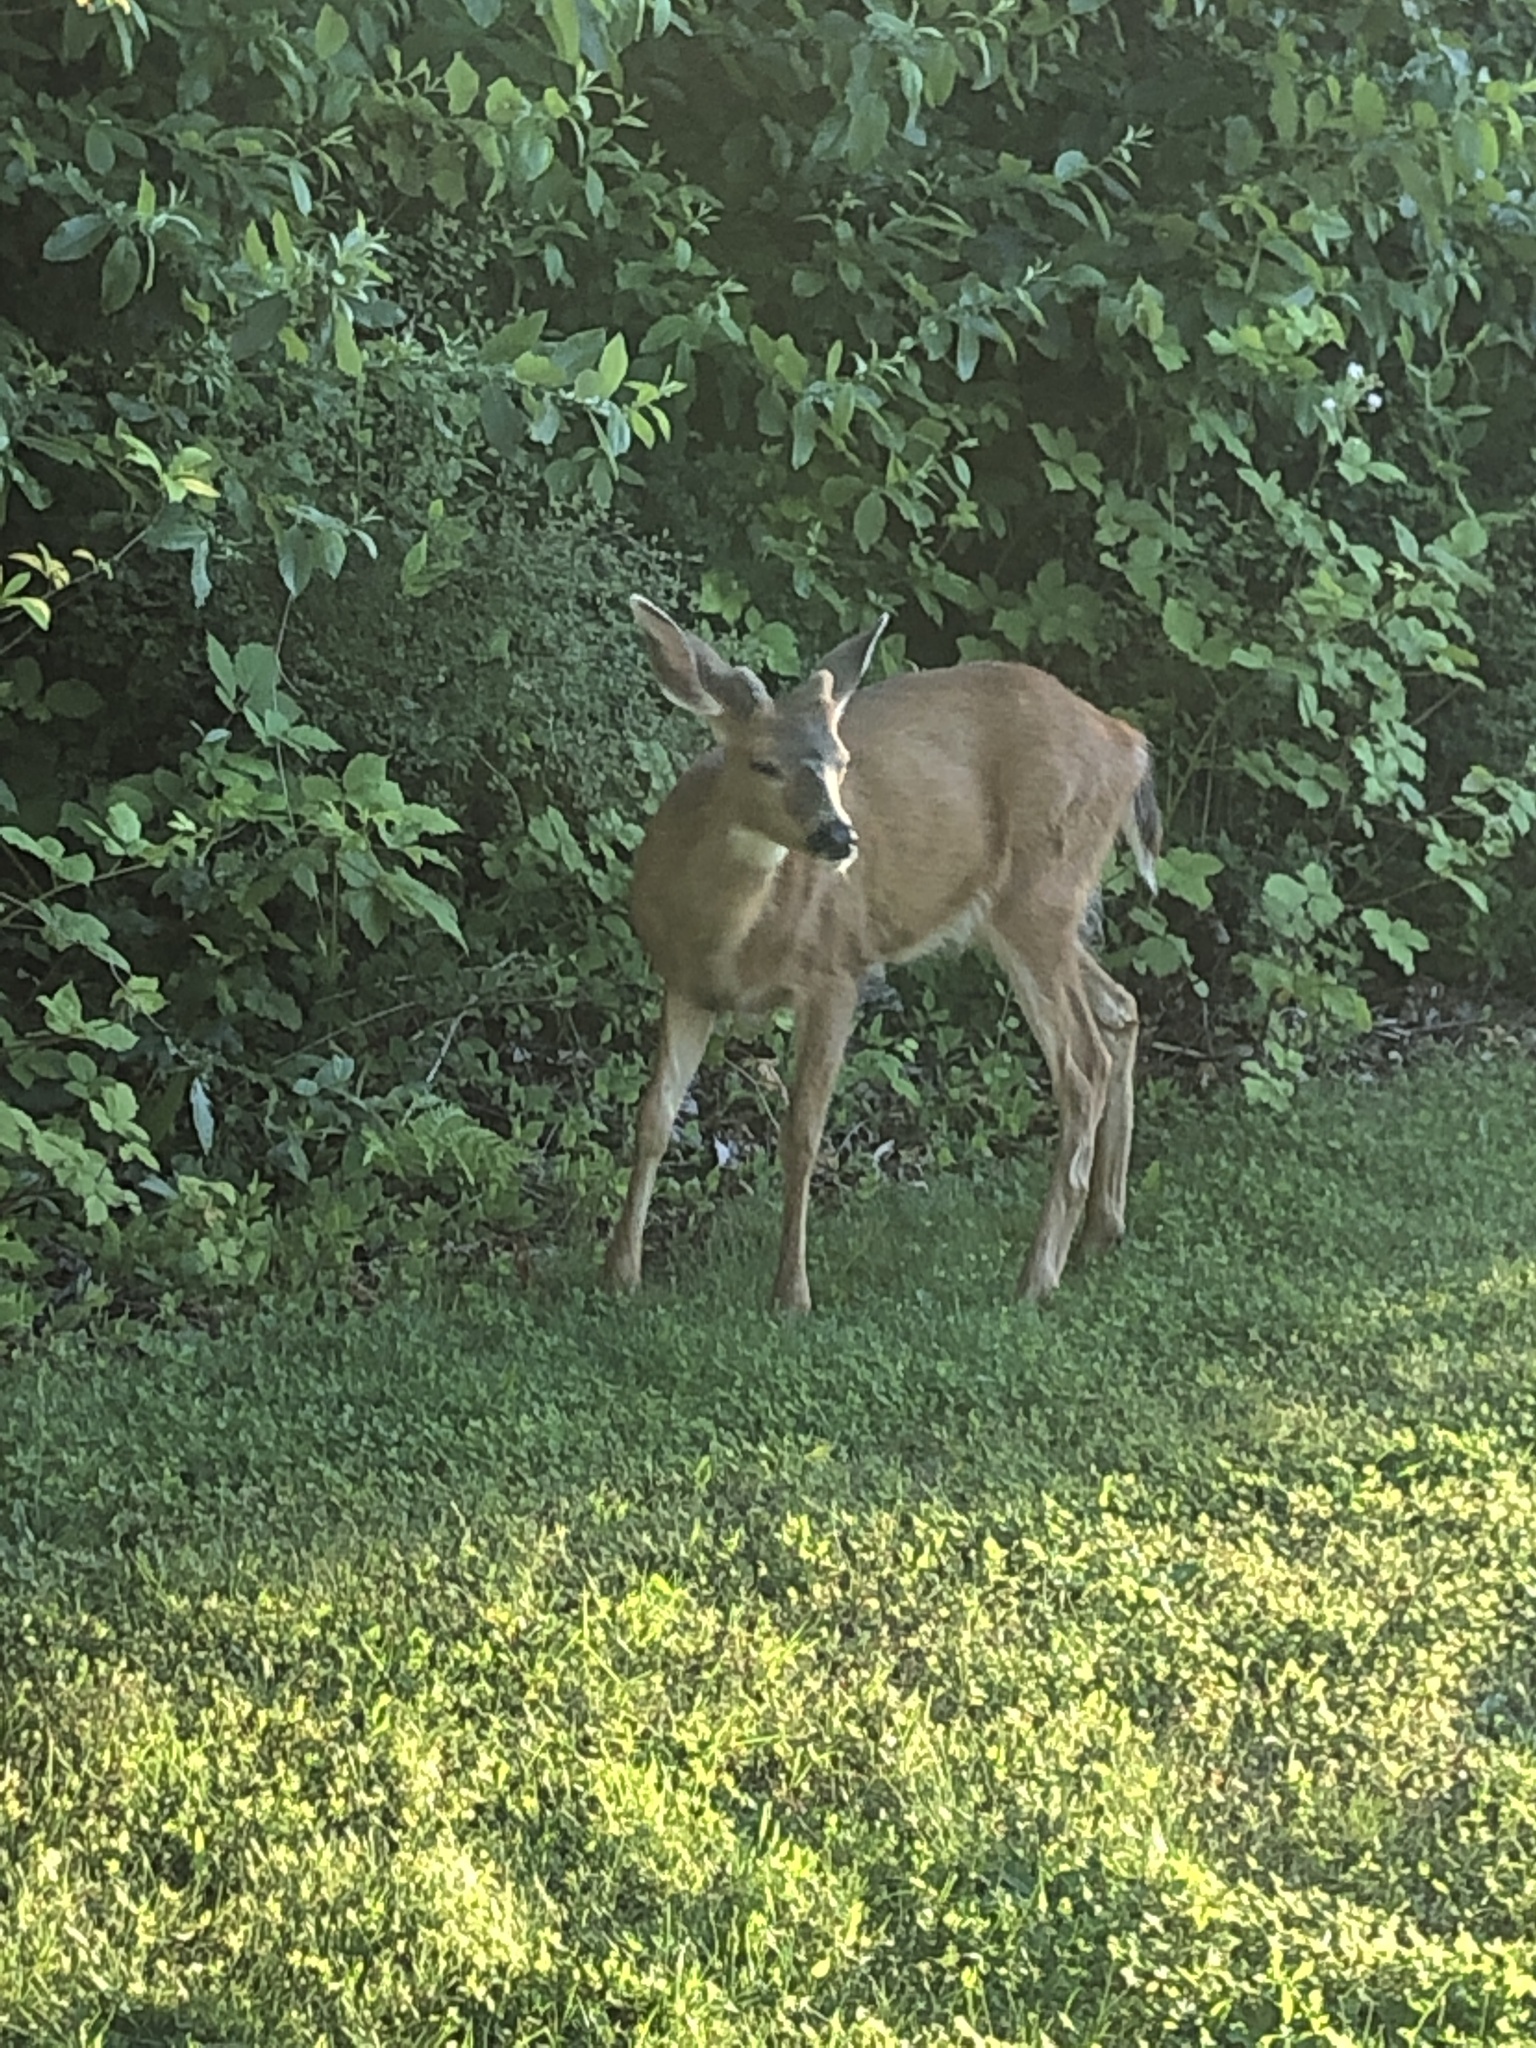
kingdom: Animalia
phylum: Chordata
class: Mammalia
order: Artiodactyla
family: Cervidae
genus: Odocoileus
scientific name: Odocoileus hemionus
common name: Mule deer
